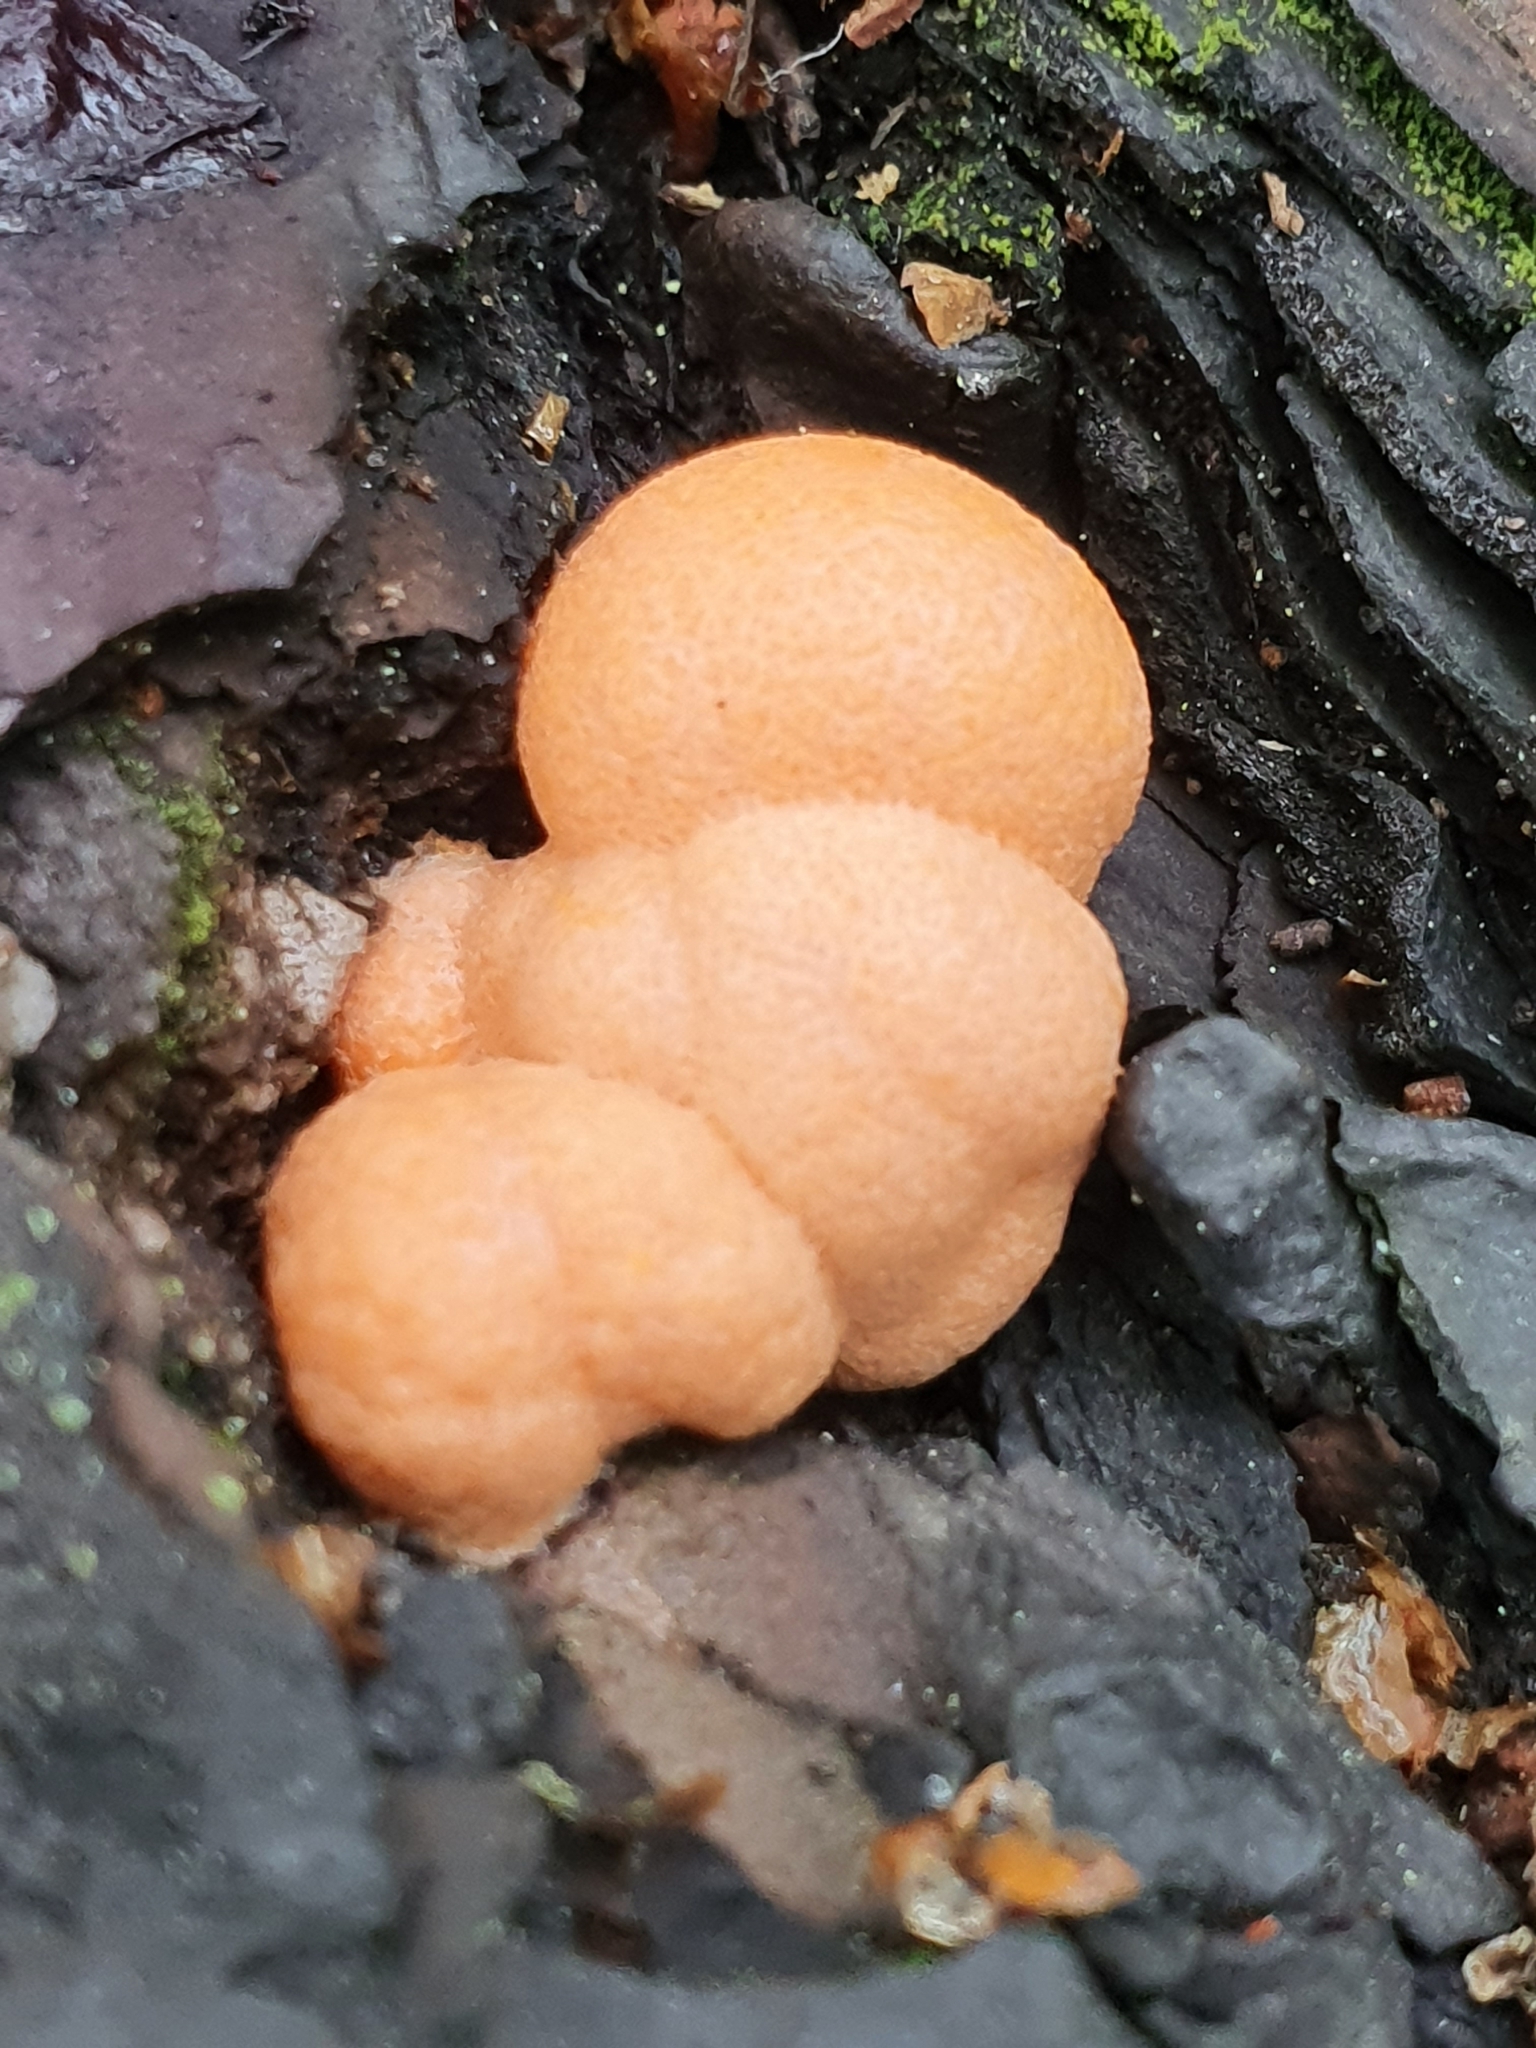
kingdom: Protozoa
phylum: Mycetozoa
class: Myxomycetes
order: Cribrariales
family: Tubiferaceae
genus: Lycogala
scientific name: Lycogala epidendrum
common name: Wolf's milk
